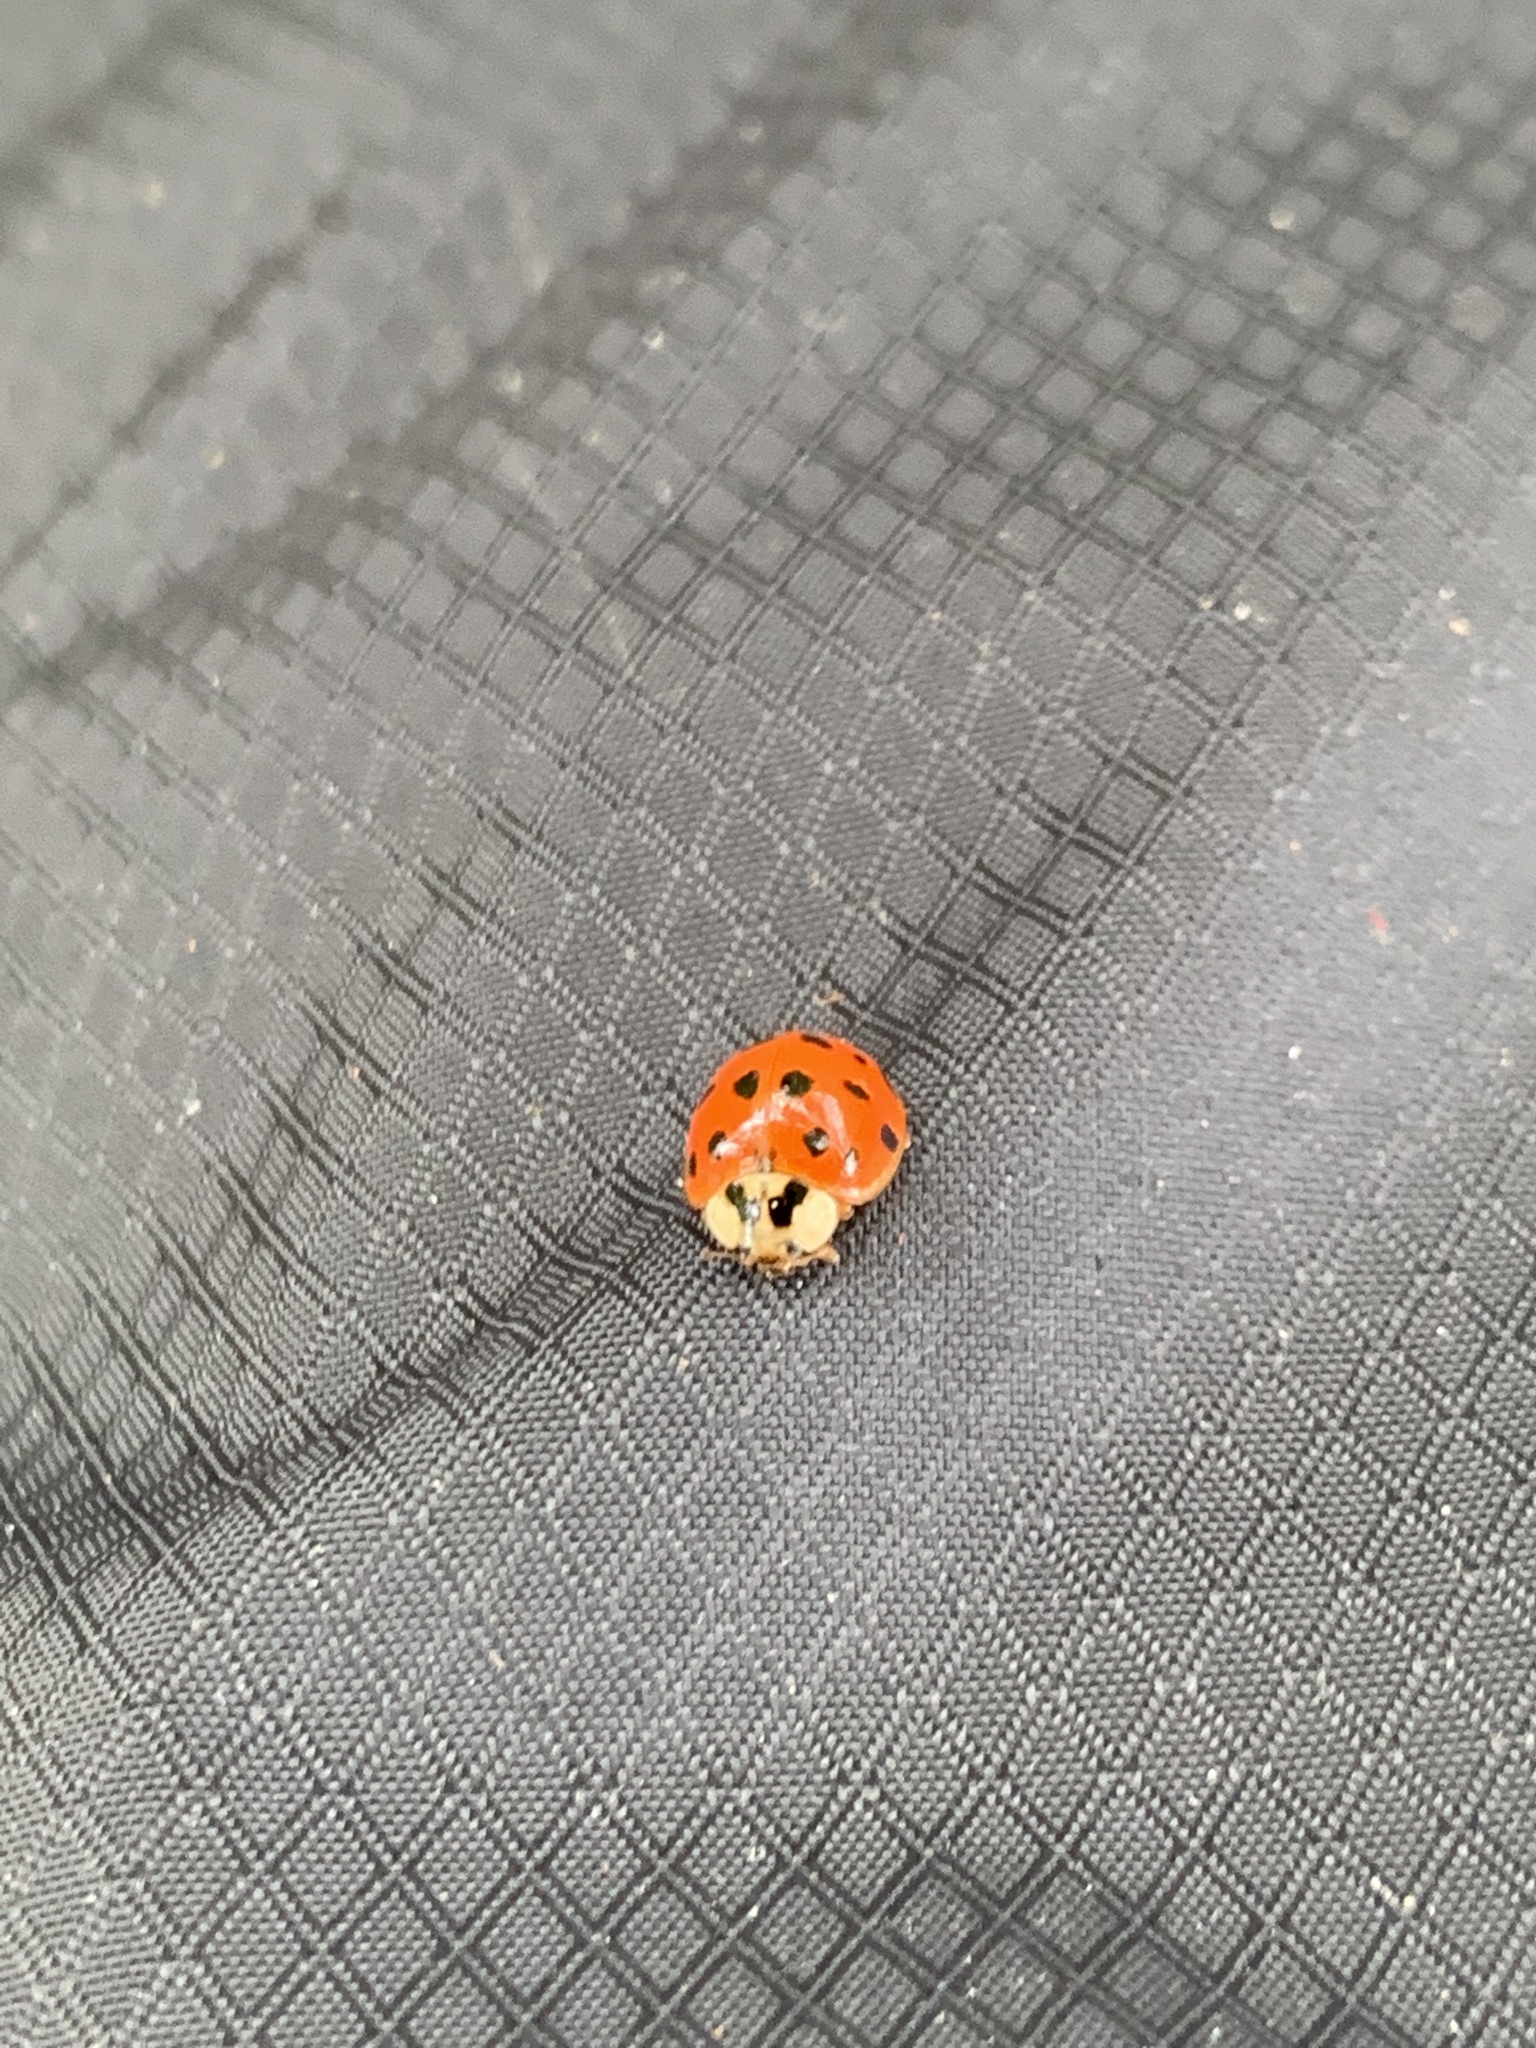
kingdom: Animalia
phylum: Arthropoda
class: Insecta
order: Coleoptera
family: Coccinellidae
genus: Harmonia
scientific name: Harmonia axyridis
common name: Harlequin ladybird
